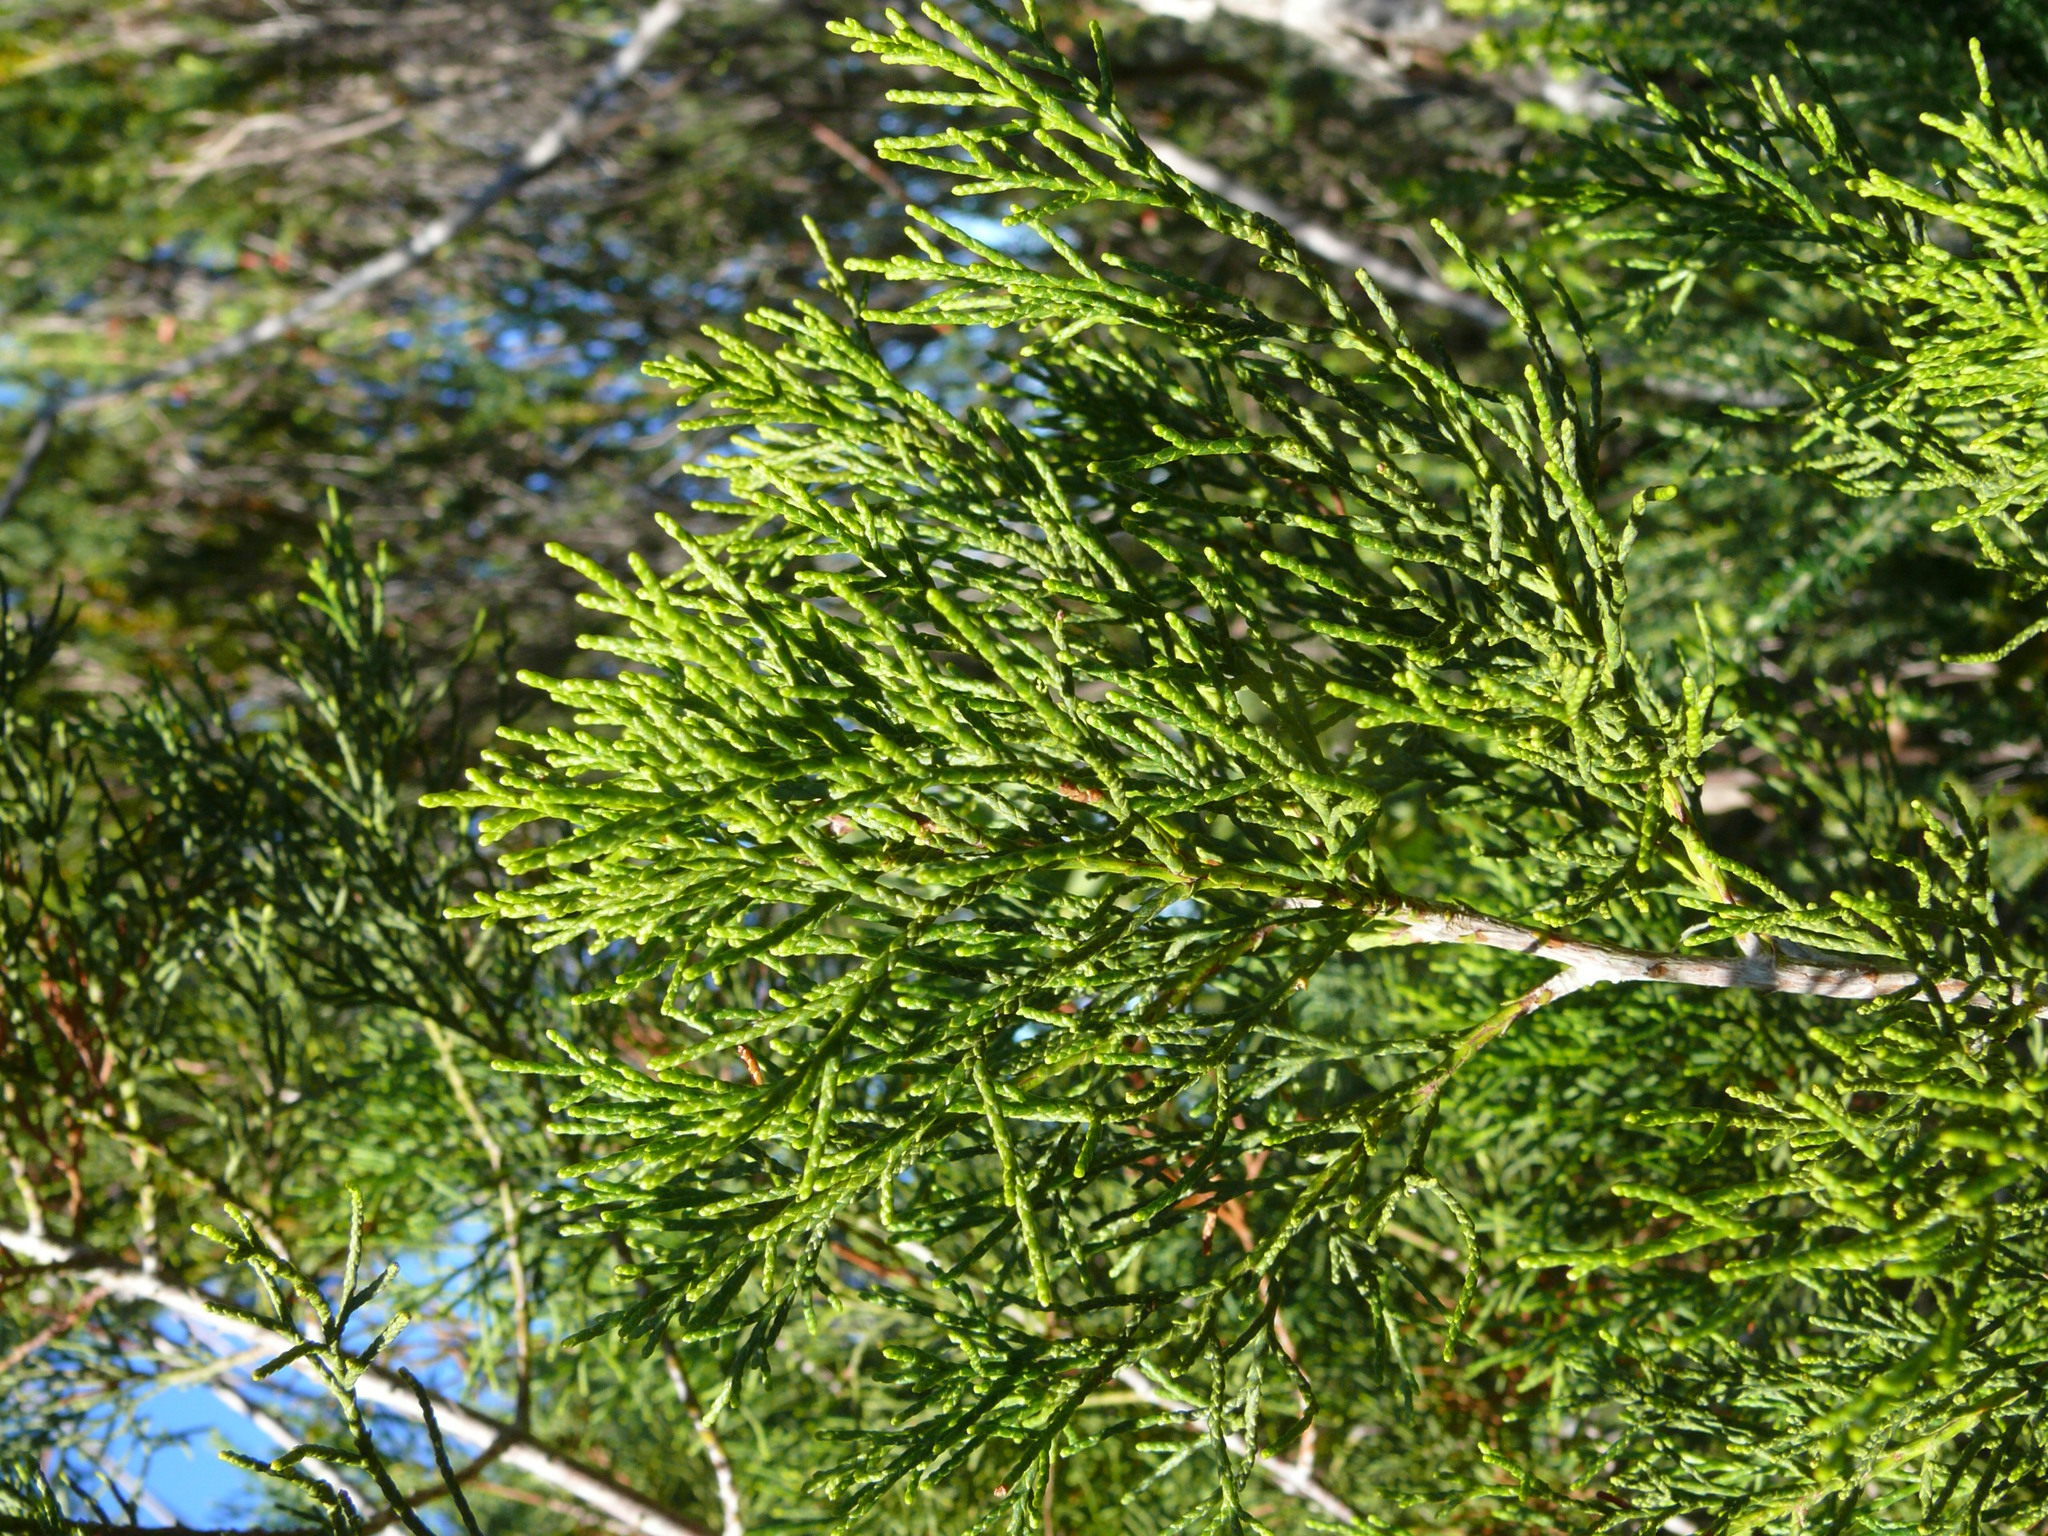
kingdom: Plantae
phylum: Tracheophyta
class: Pinopsida
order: Pinales
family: Cupressaceae
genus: Widdringtonia
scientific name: Widdringtonia nodiflora
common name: Cape cypress
